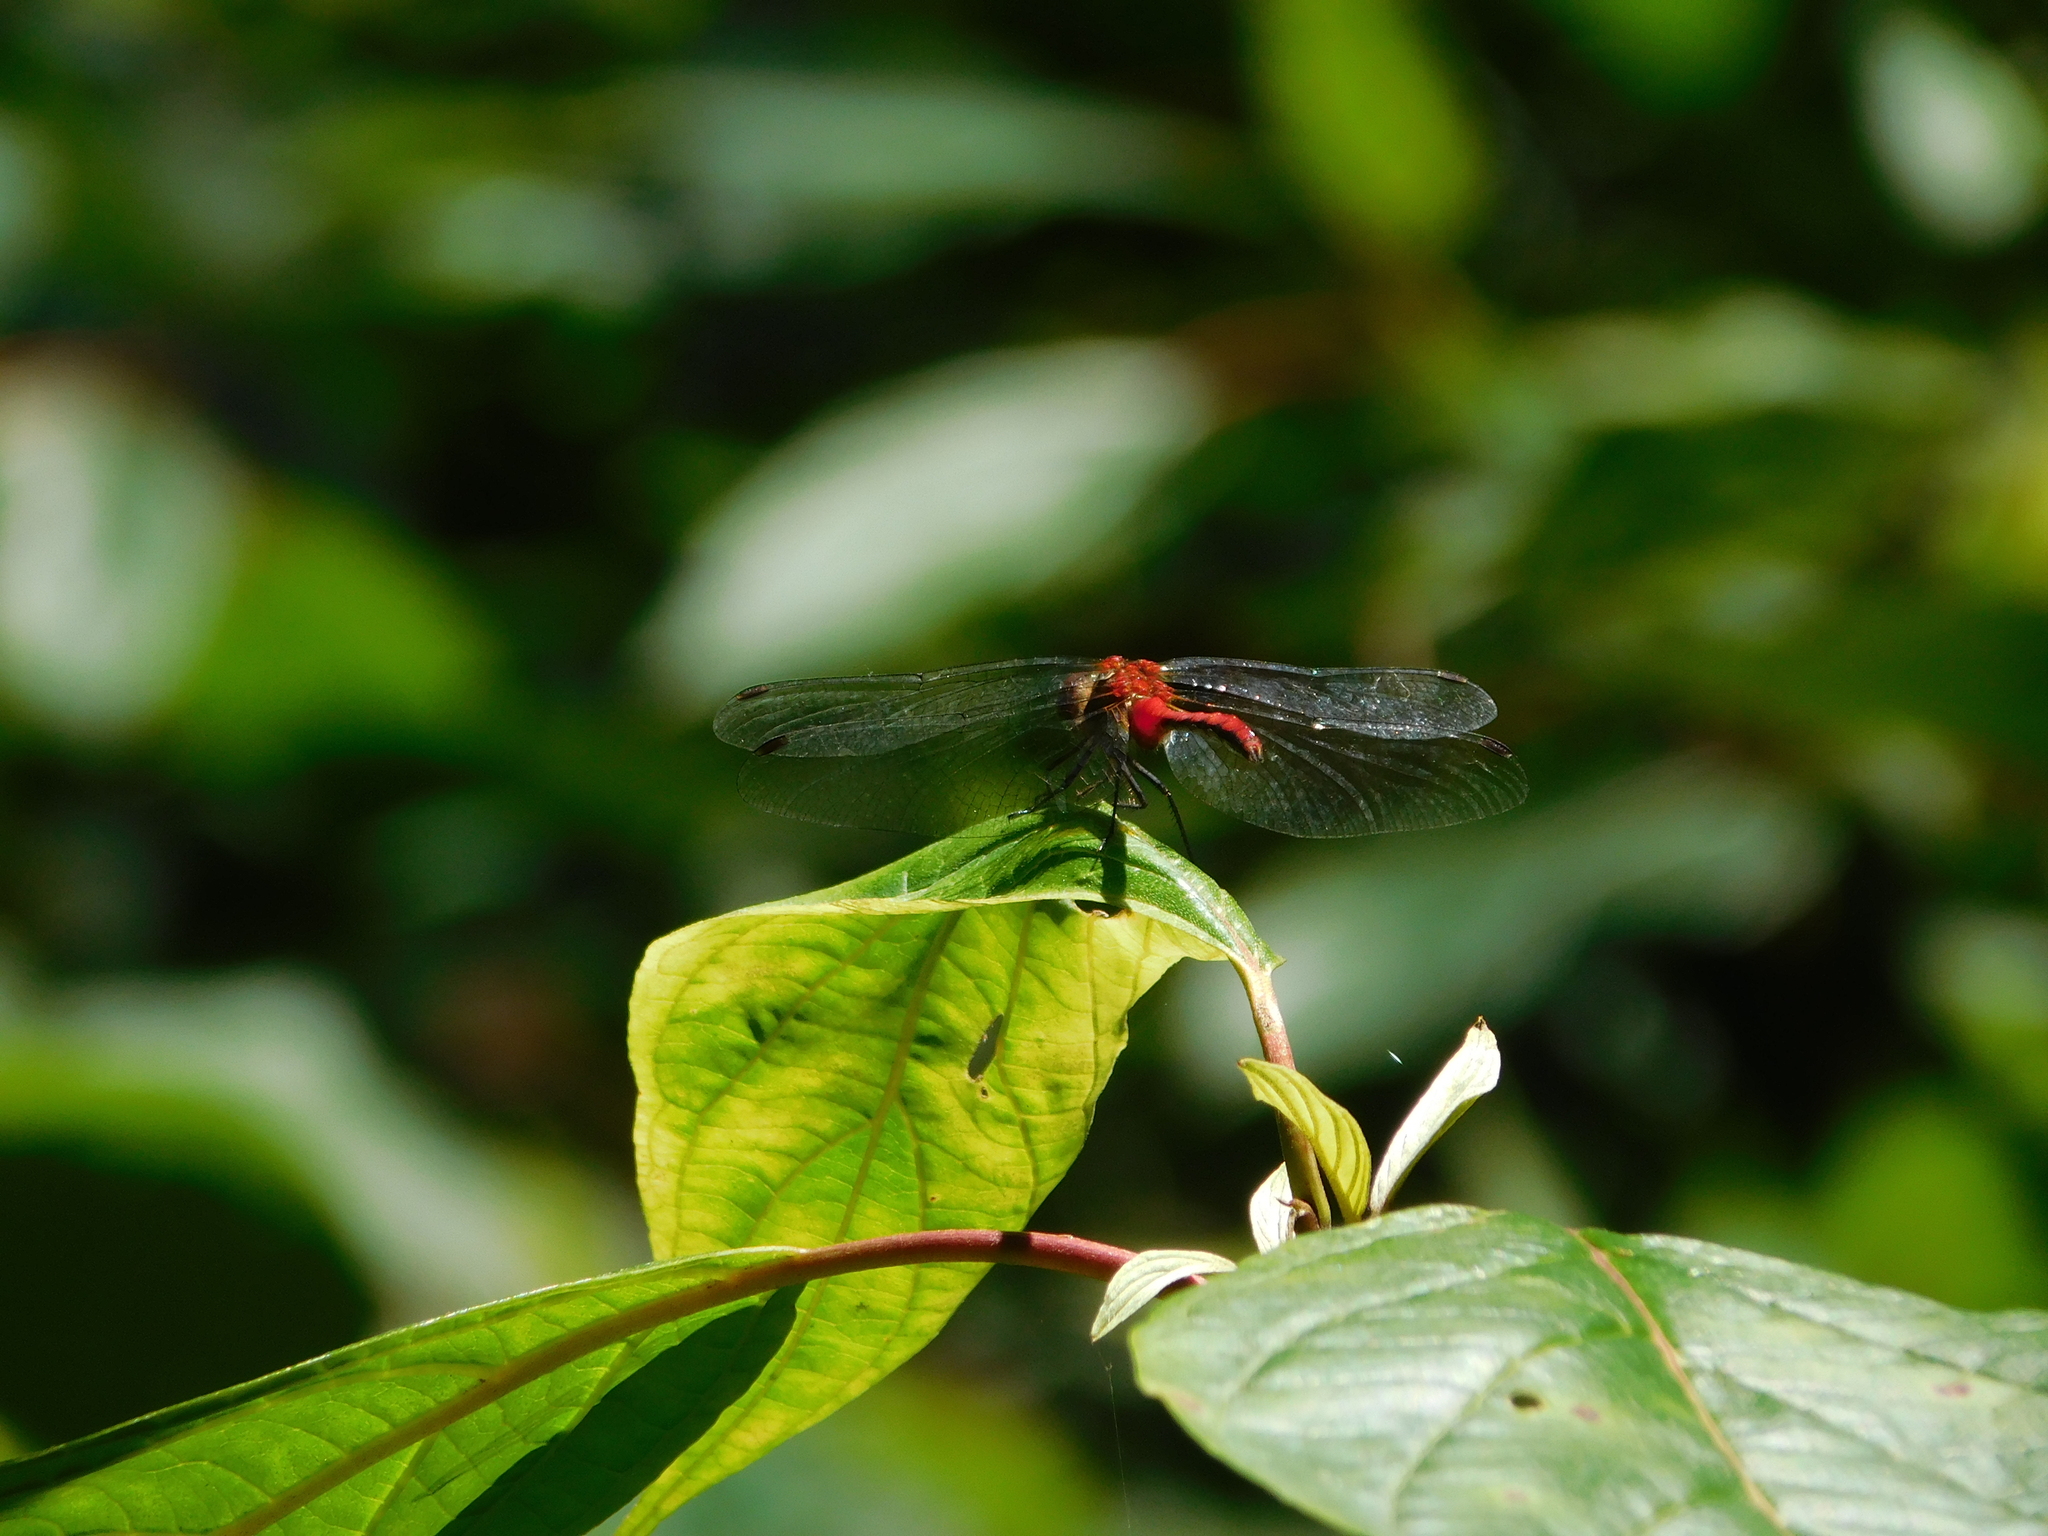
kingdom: Animalia
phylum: Arthropoda
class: Insecta
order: Odonata
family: Libellulidae
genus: Sympetrum
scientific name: Sympetrum
